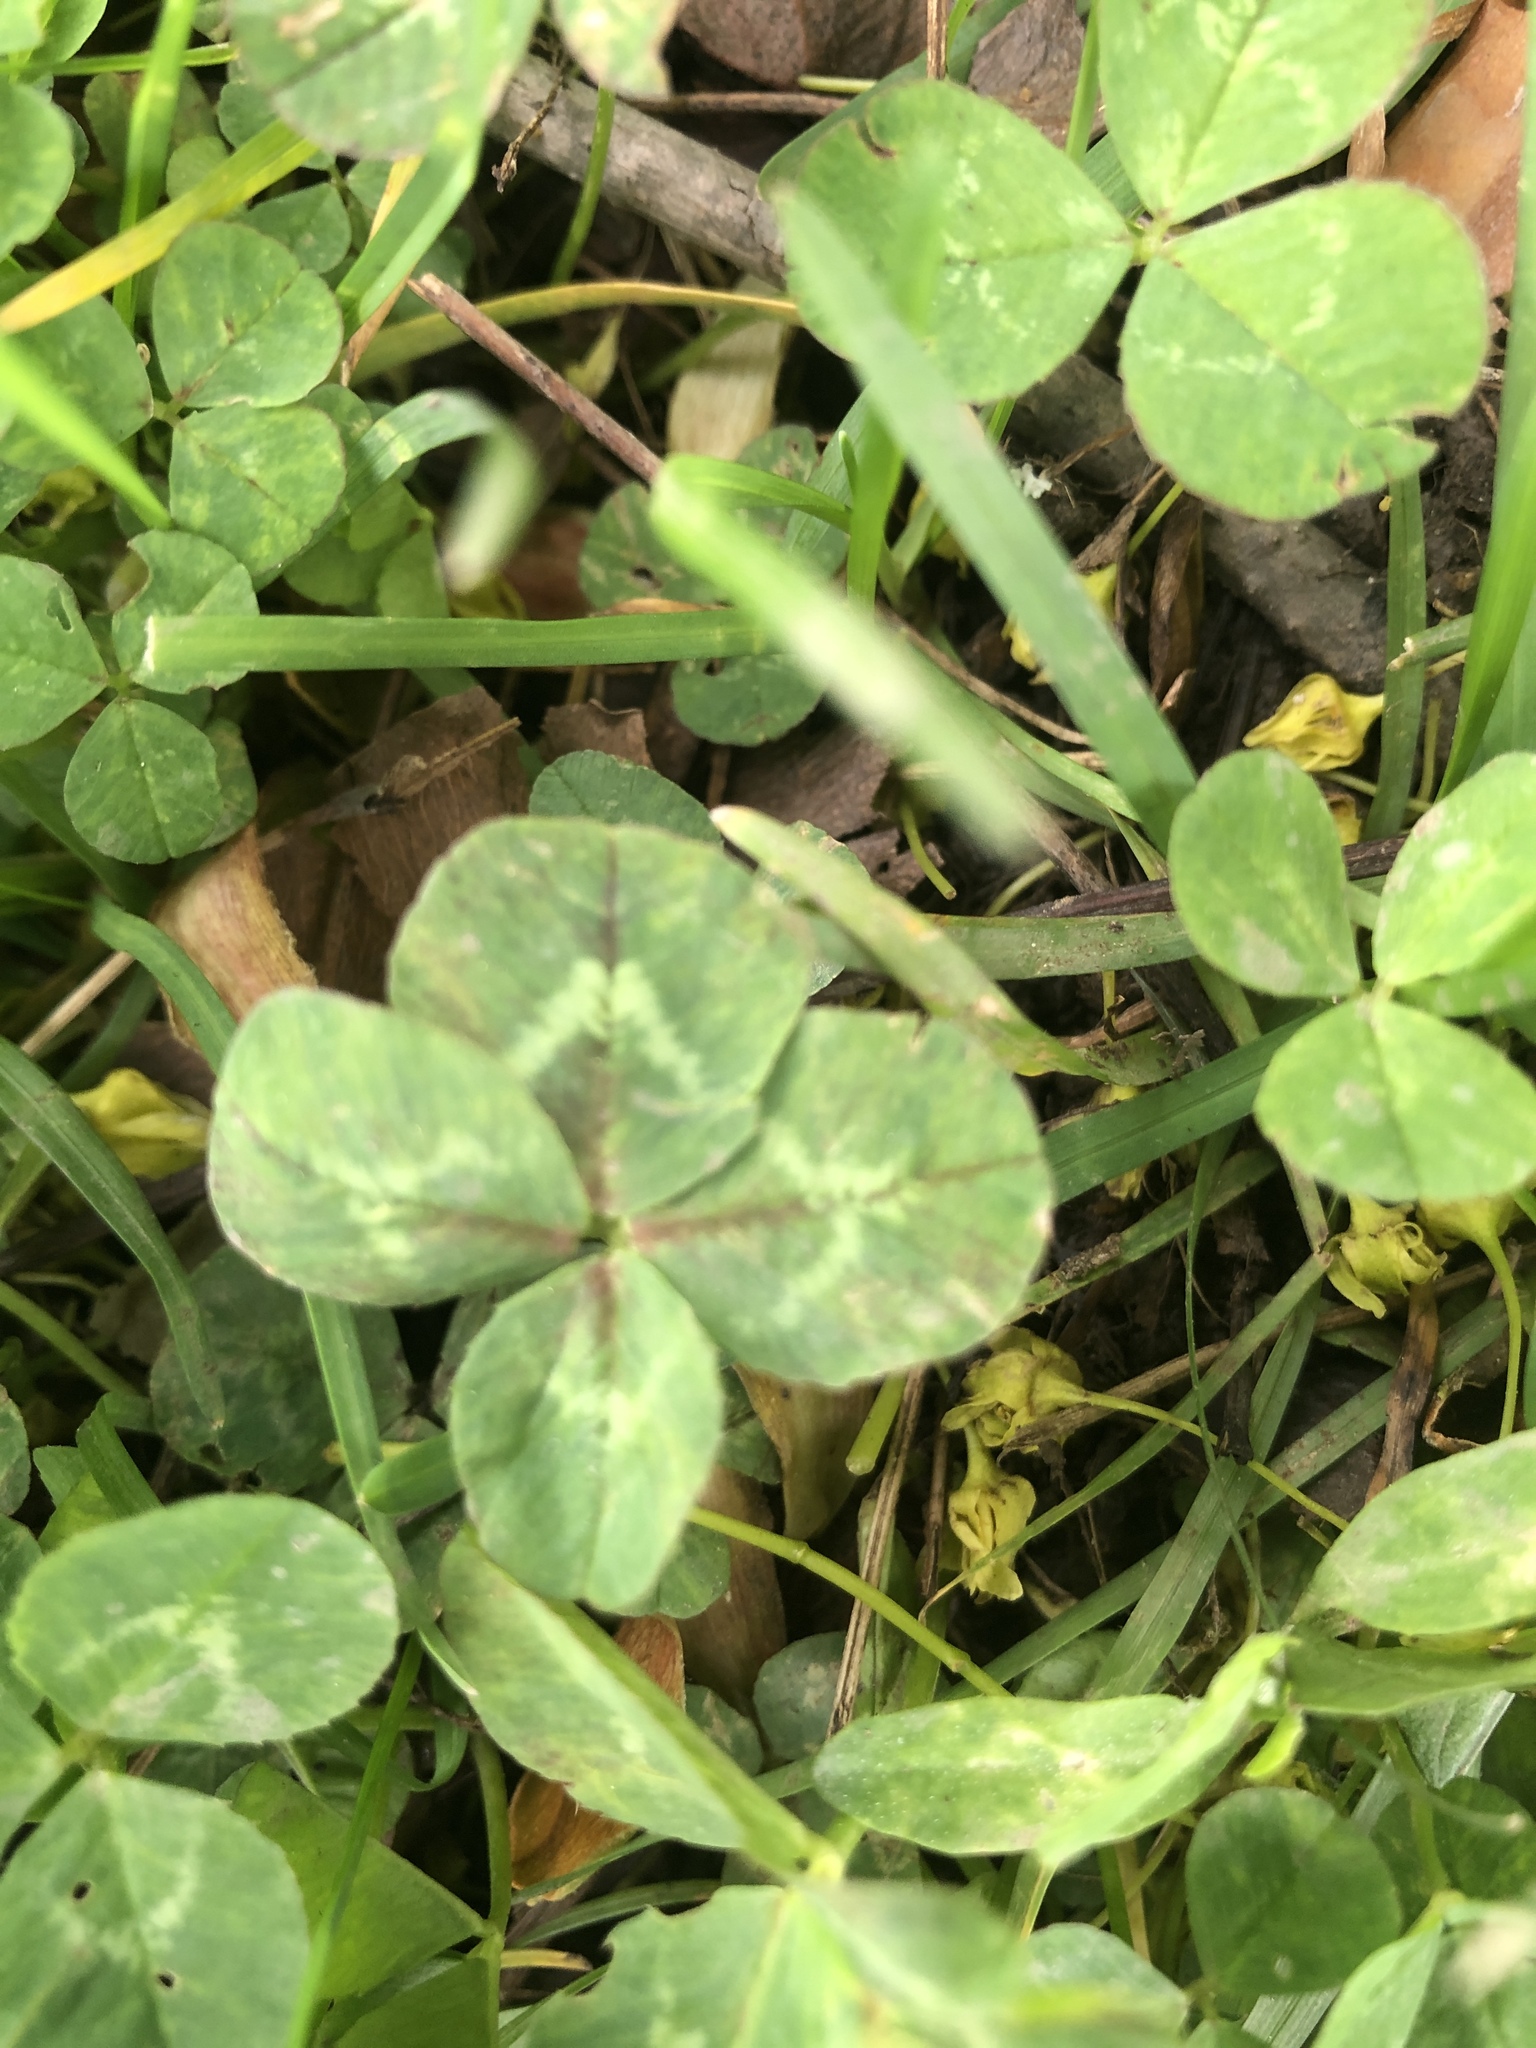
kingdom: Plantae
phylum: Tracheophyta
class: Magnoliopsida
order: Fabales
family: Fabaceae
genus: Trifolium
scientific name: Trifolium repens
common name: White clover
